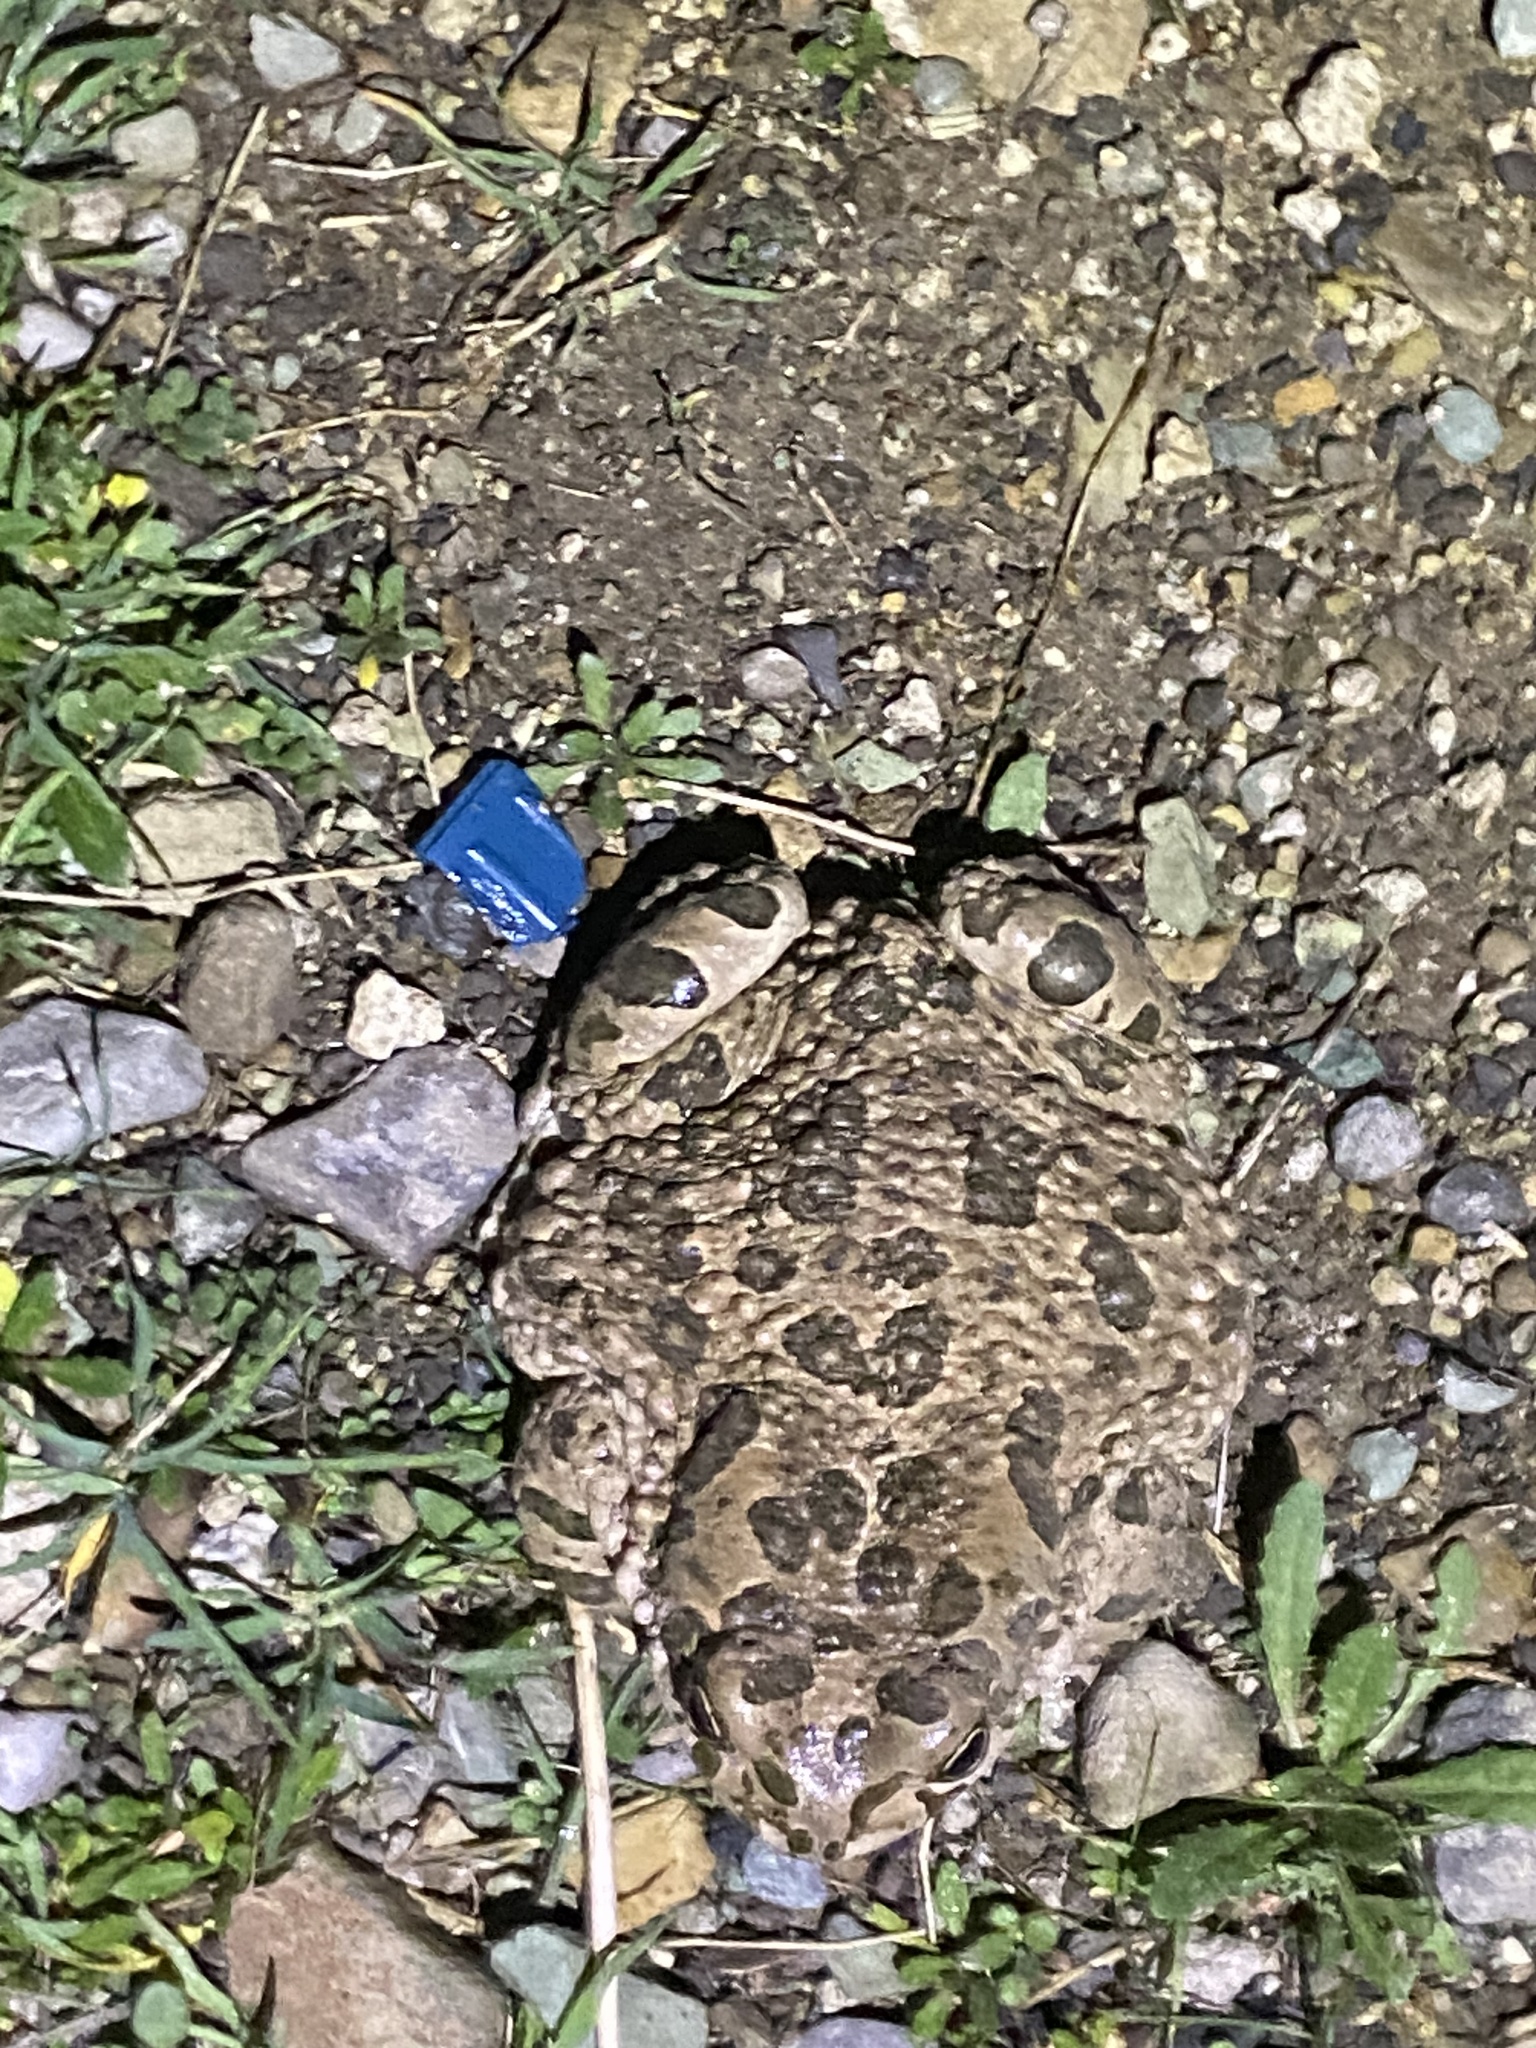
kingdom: Animalia
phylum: Chordata
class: Amphibia
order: Anura
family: Bufonidae
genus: Bufotes
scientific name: Bufotes viridis
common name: European green toad
